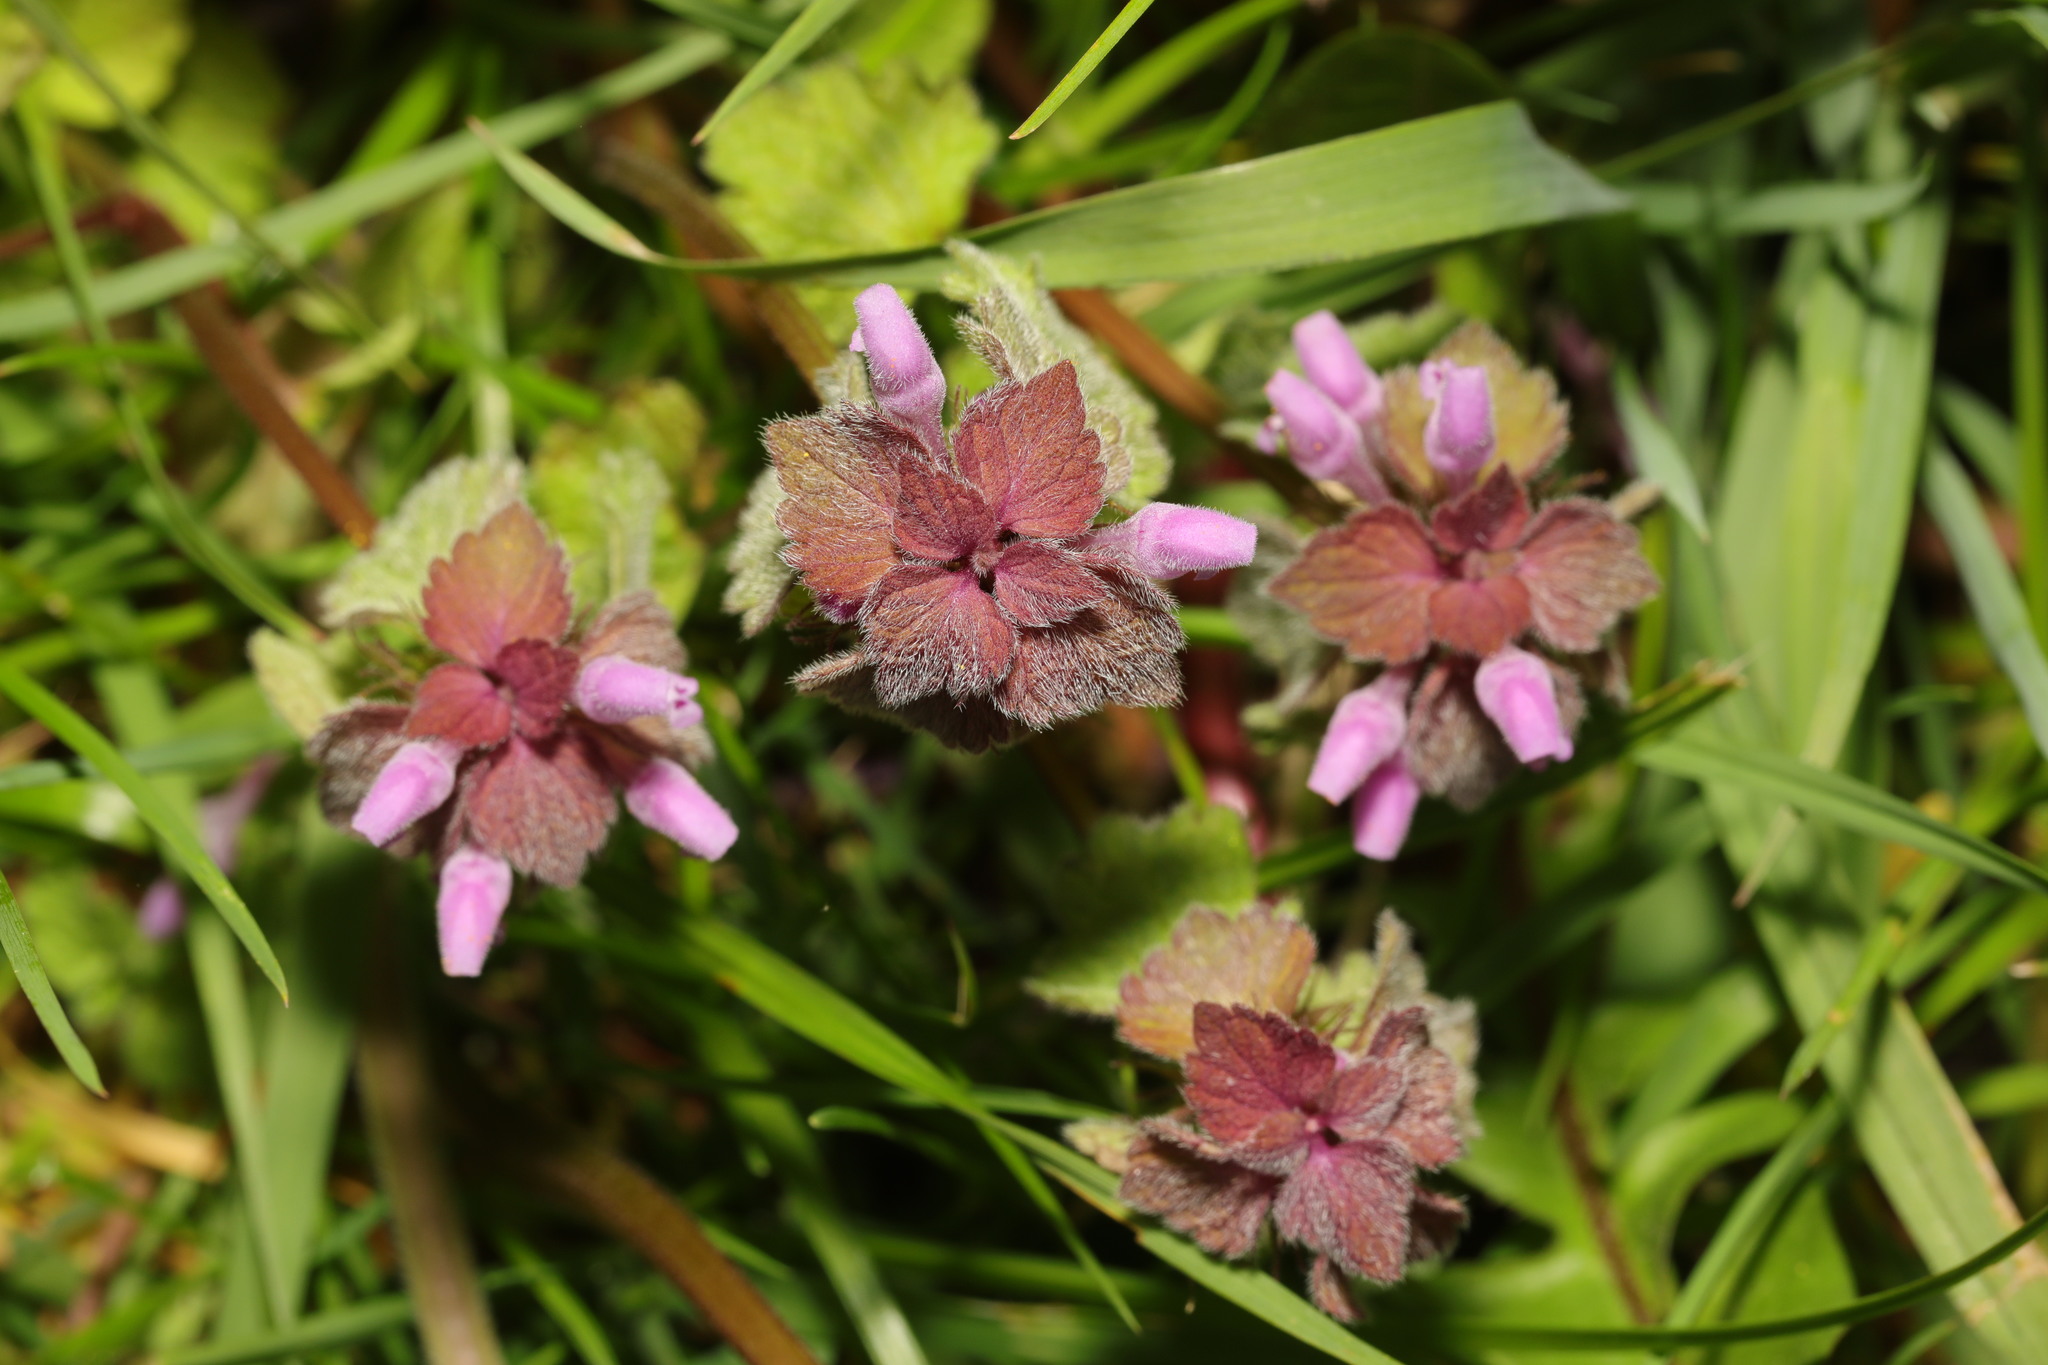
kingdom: Plantae
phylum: Tracheophyta
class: Magnoliopsida
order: Lamiales
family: Lamiaceae
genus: Lamium
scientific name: Lamium purpureum
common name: Red dead-nettle
